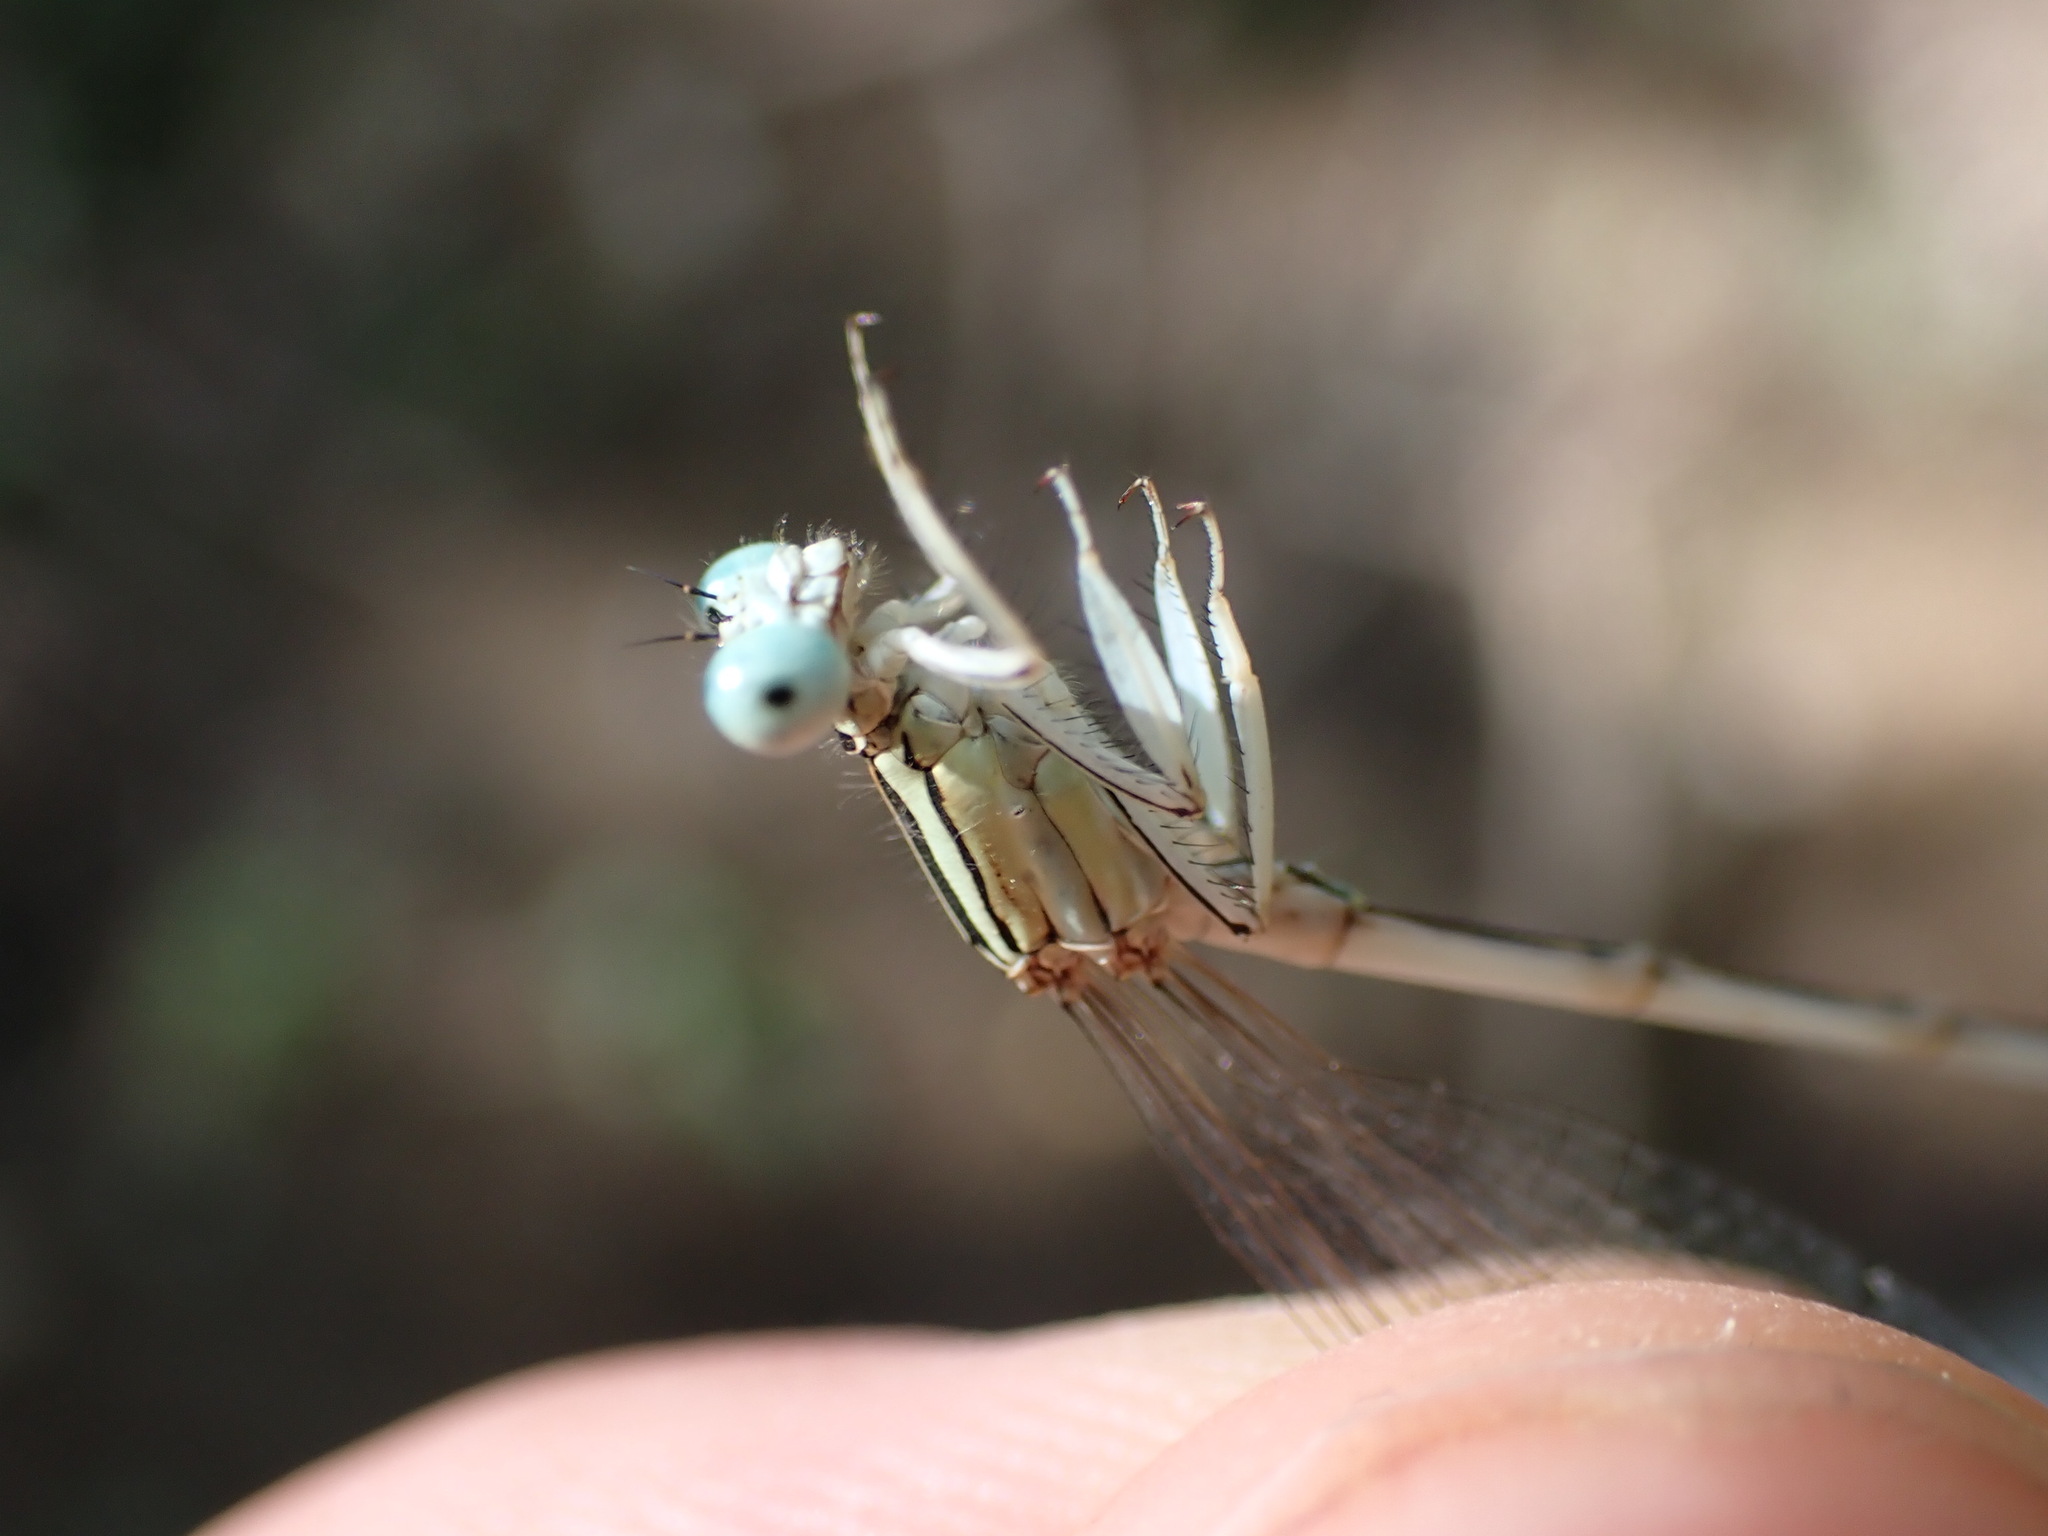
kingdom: Animalia
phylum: Arthropoda
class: Insecta
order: Odonata
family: Platycnemididae
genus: Platycnemis
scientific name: Platycnemis latipes
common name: White featherleg
